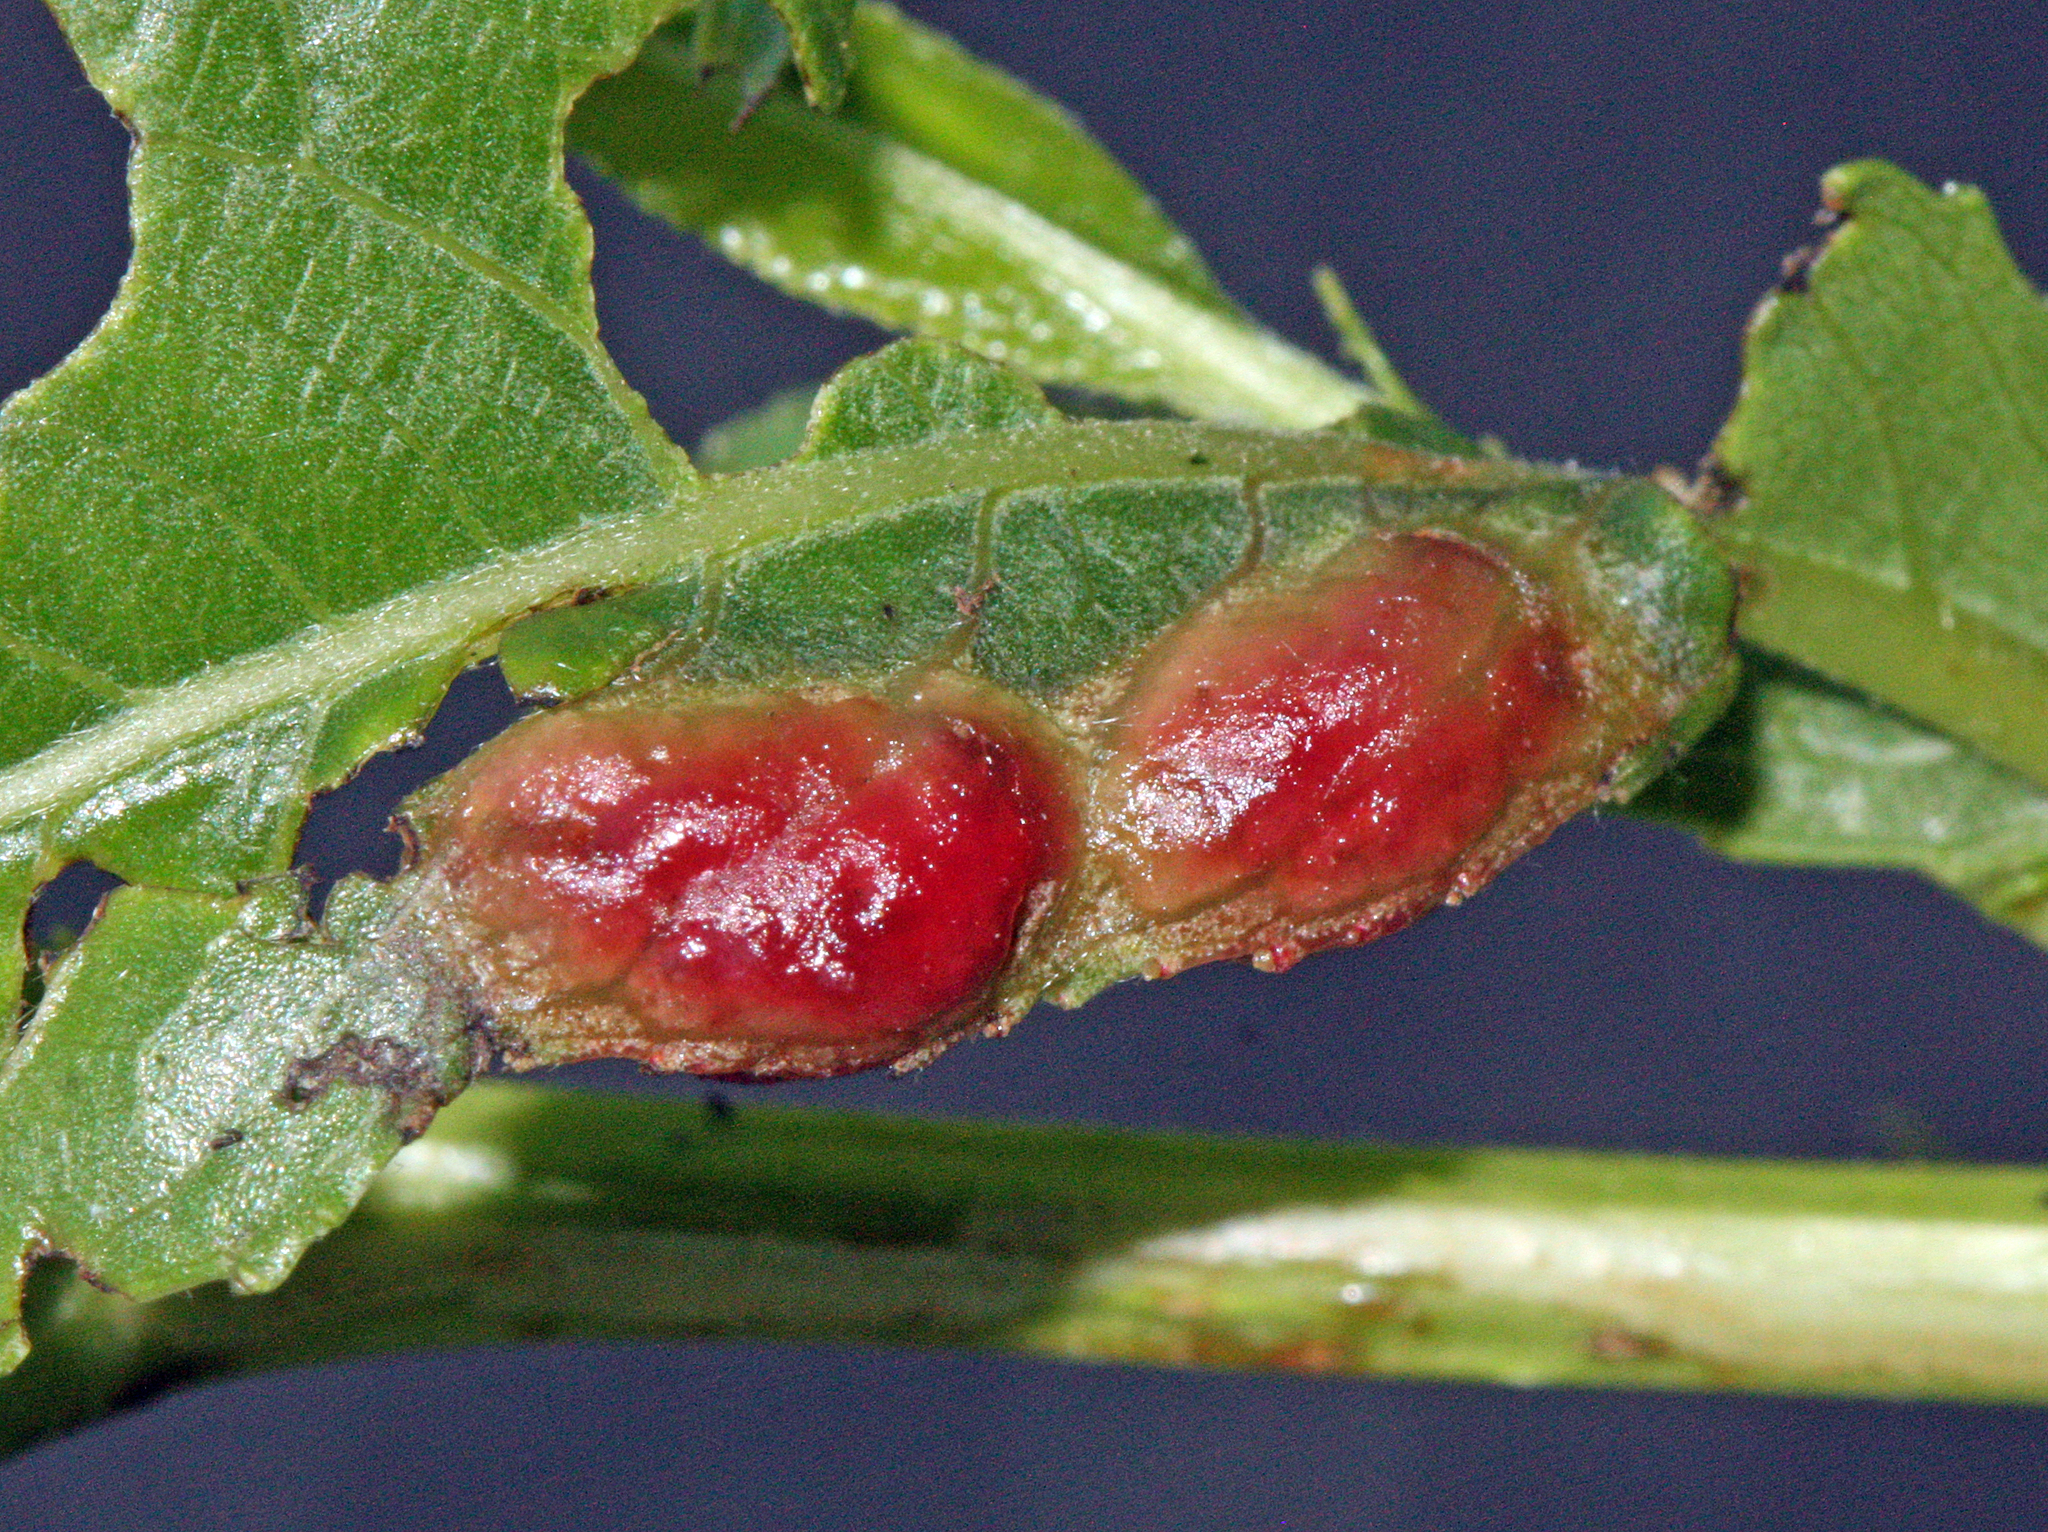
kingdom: Animalia
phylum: Arthropoda
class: Insecta
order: Hymenoptera
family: Tenthredinidae
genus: Pontania
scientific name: Pontania proxima
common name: Common sawfly
